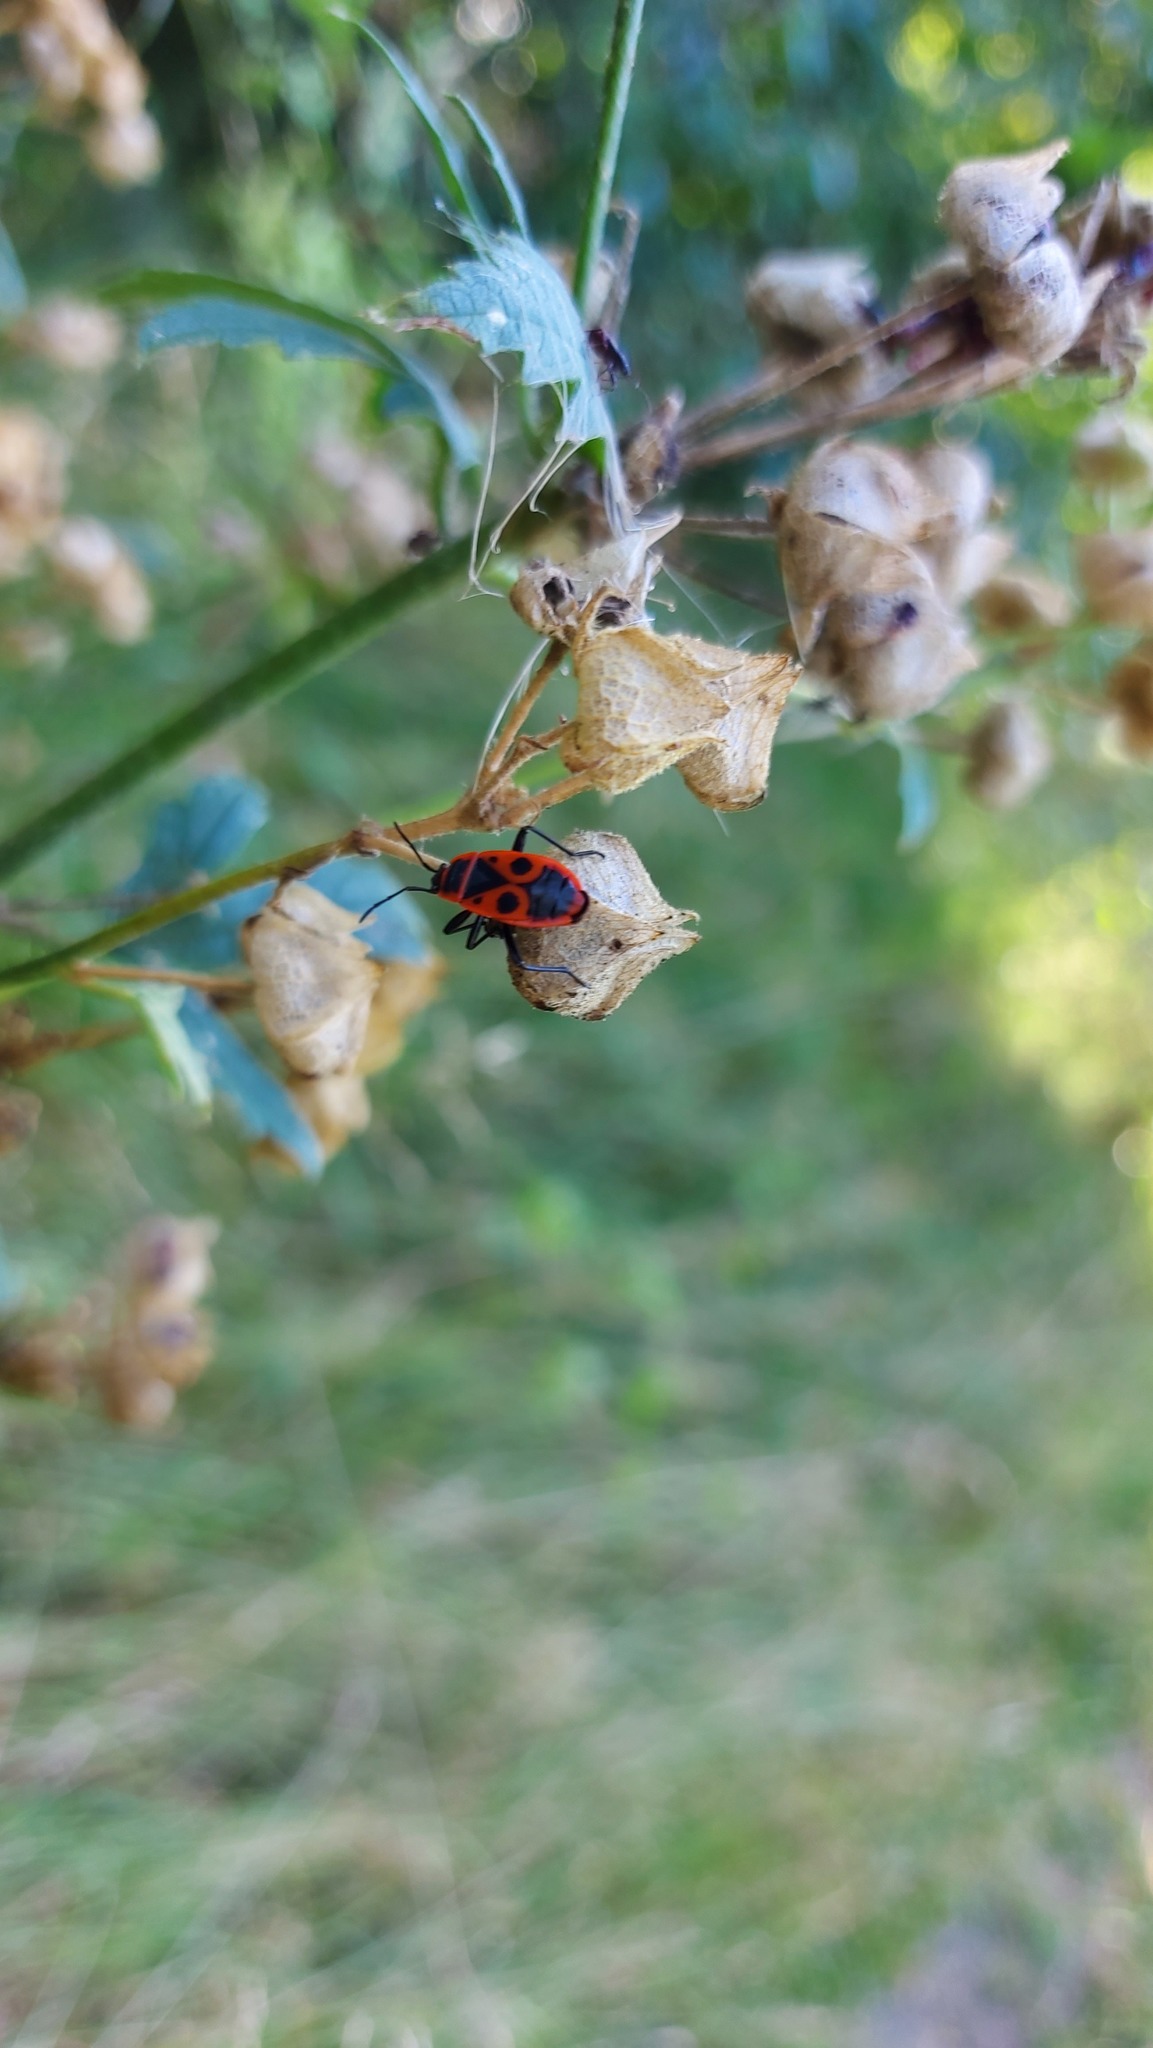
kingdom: Animalia
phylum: Arthropoda
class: Insecta
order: Hemiptera
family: Pyrrhocoridae
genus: Pyrrhocoris
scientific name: Pyrrhocoris apterus
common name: Firebug
